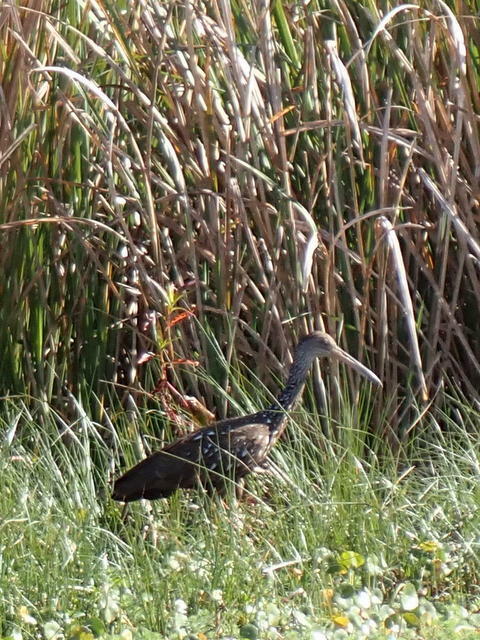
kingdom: Animalia
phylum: Chordata
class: Aves
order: Gruiformes
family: Aramidae
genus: Aramus
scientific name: Aramus guarauna
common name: Limpkin
